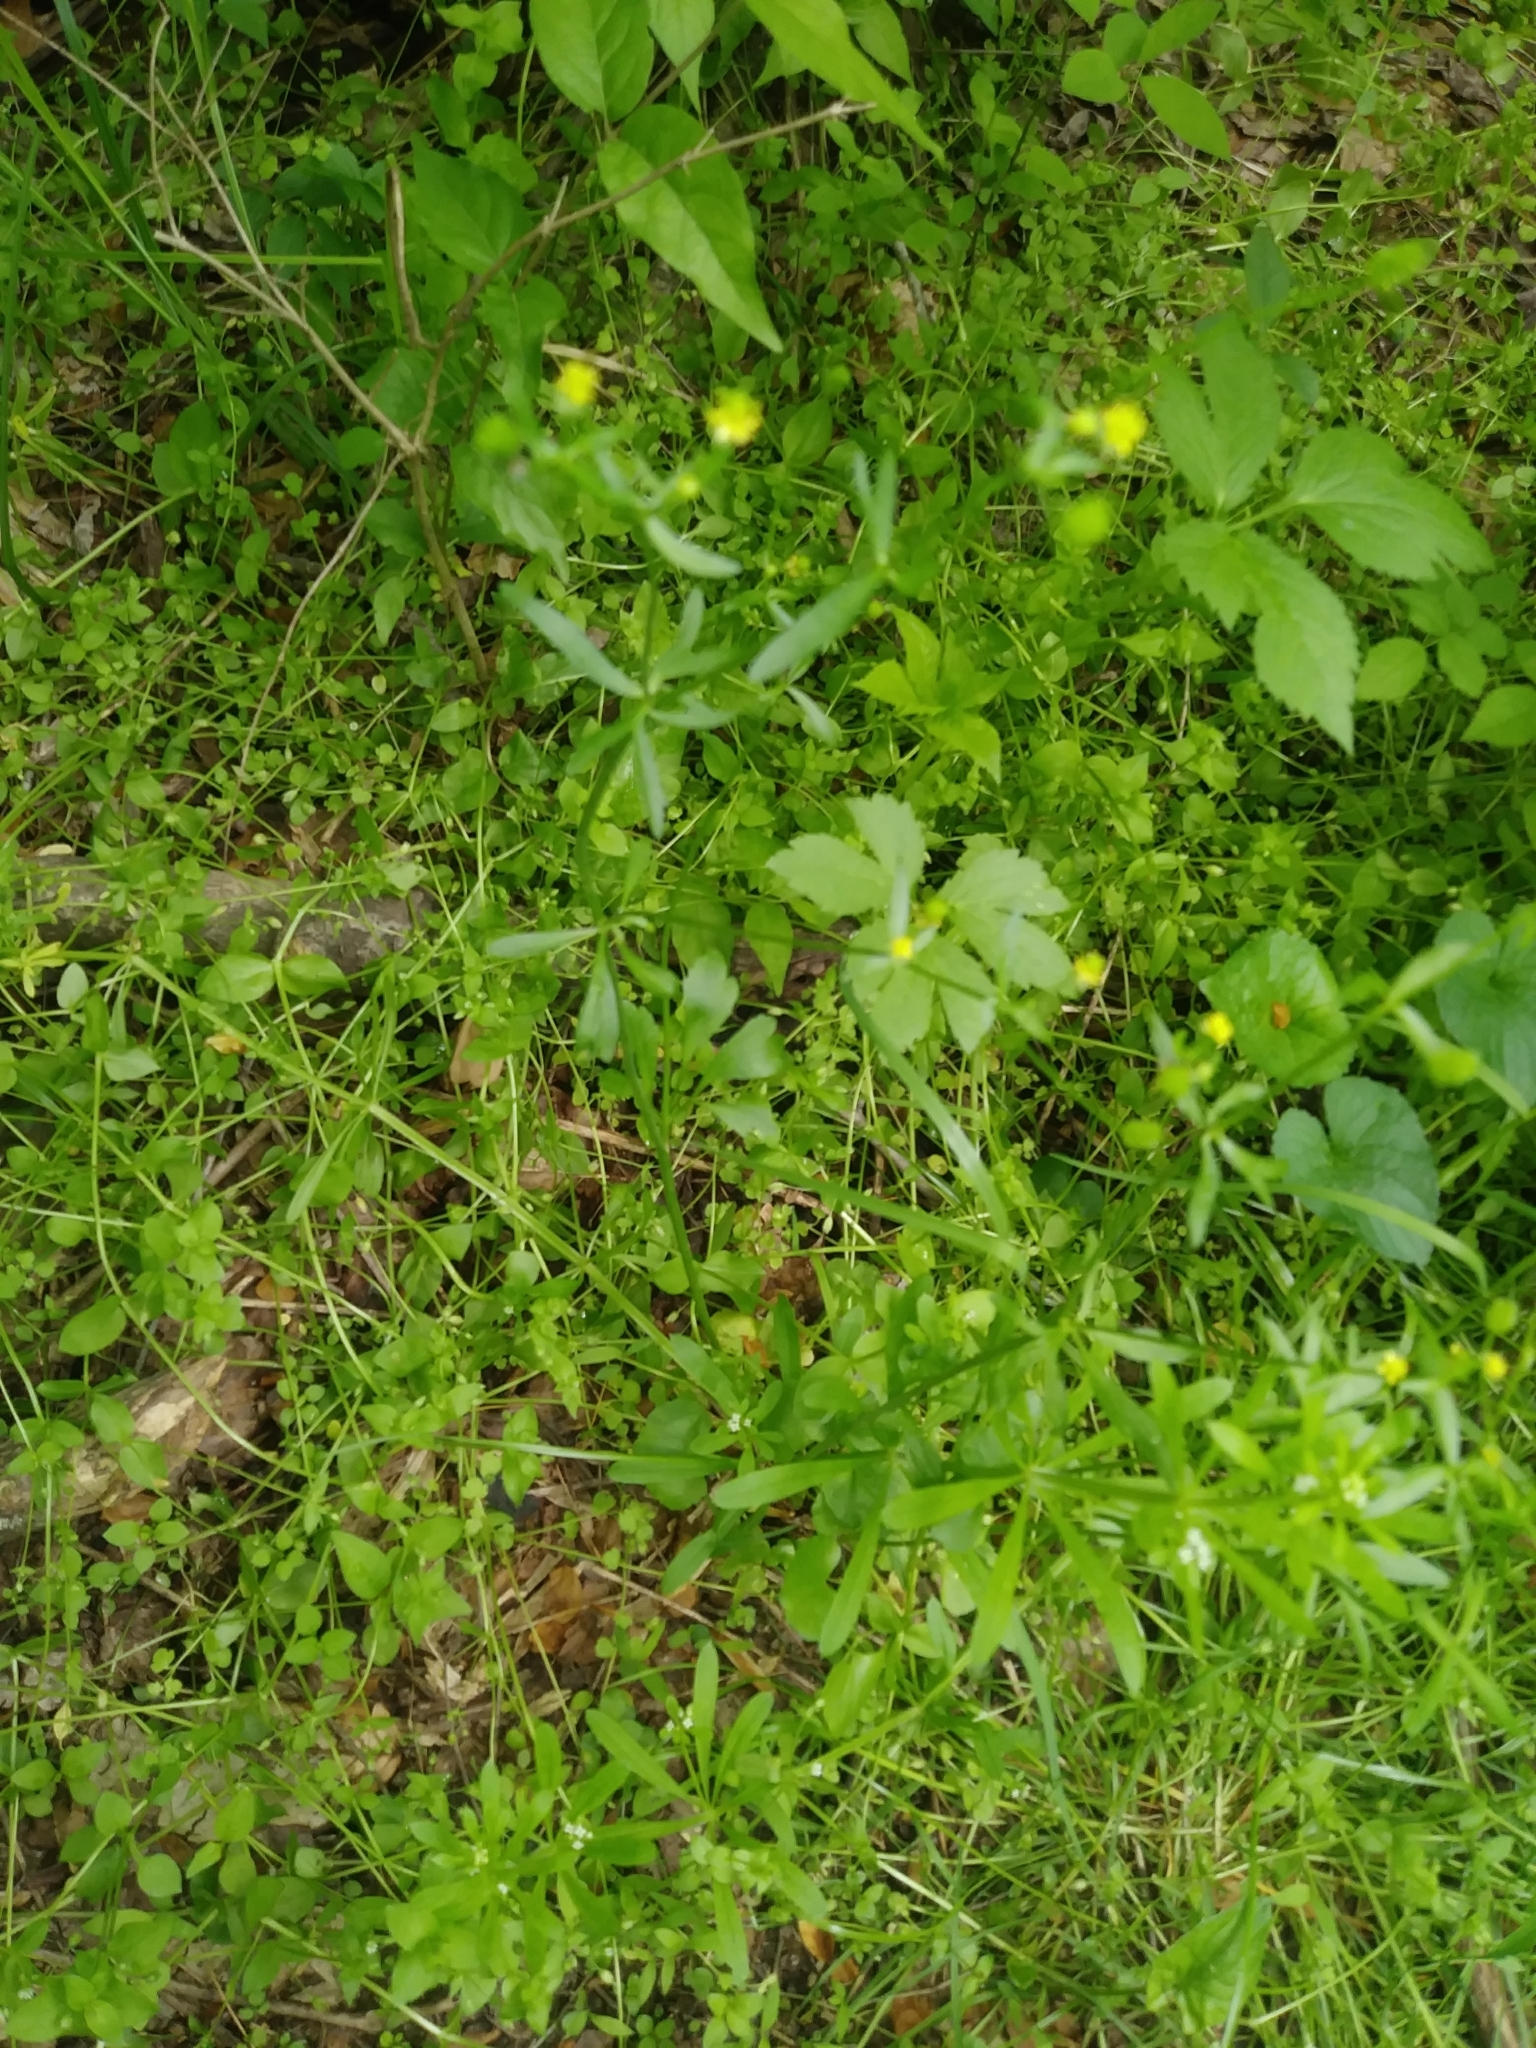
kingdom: Plantae
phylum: Tracheophyta
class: Magnoliopsida
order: Ranunculales
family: Ranunculaceae
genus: Ranunculus
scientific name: Ranunculus abortivus
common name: Early wood buttercup
